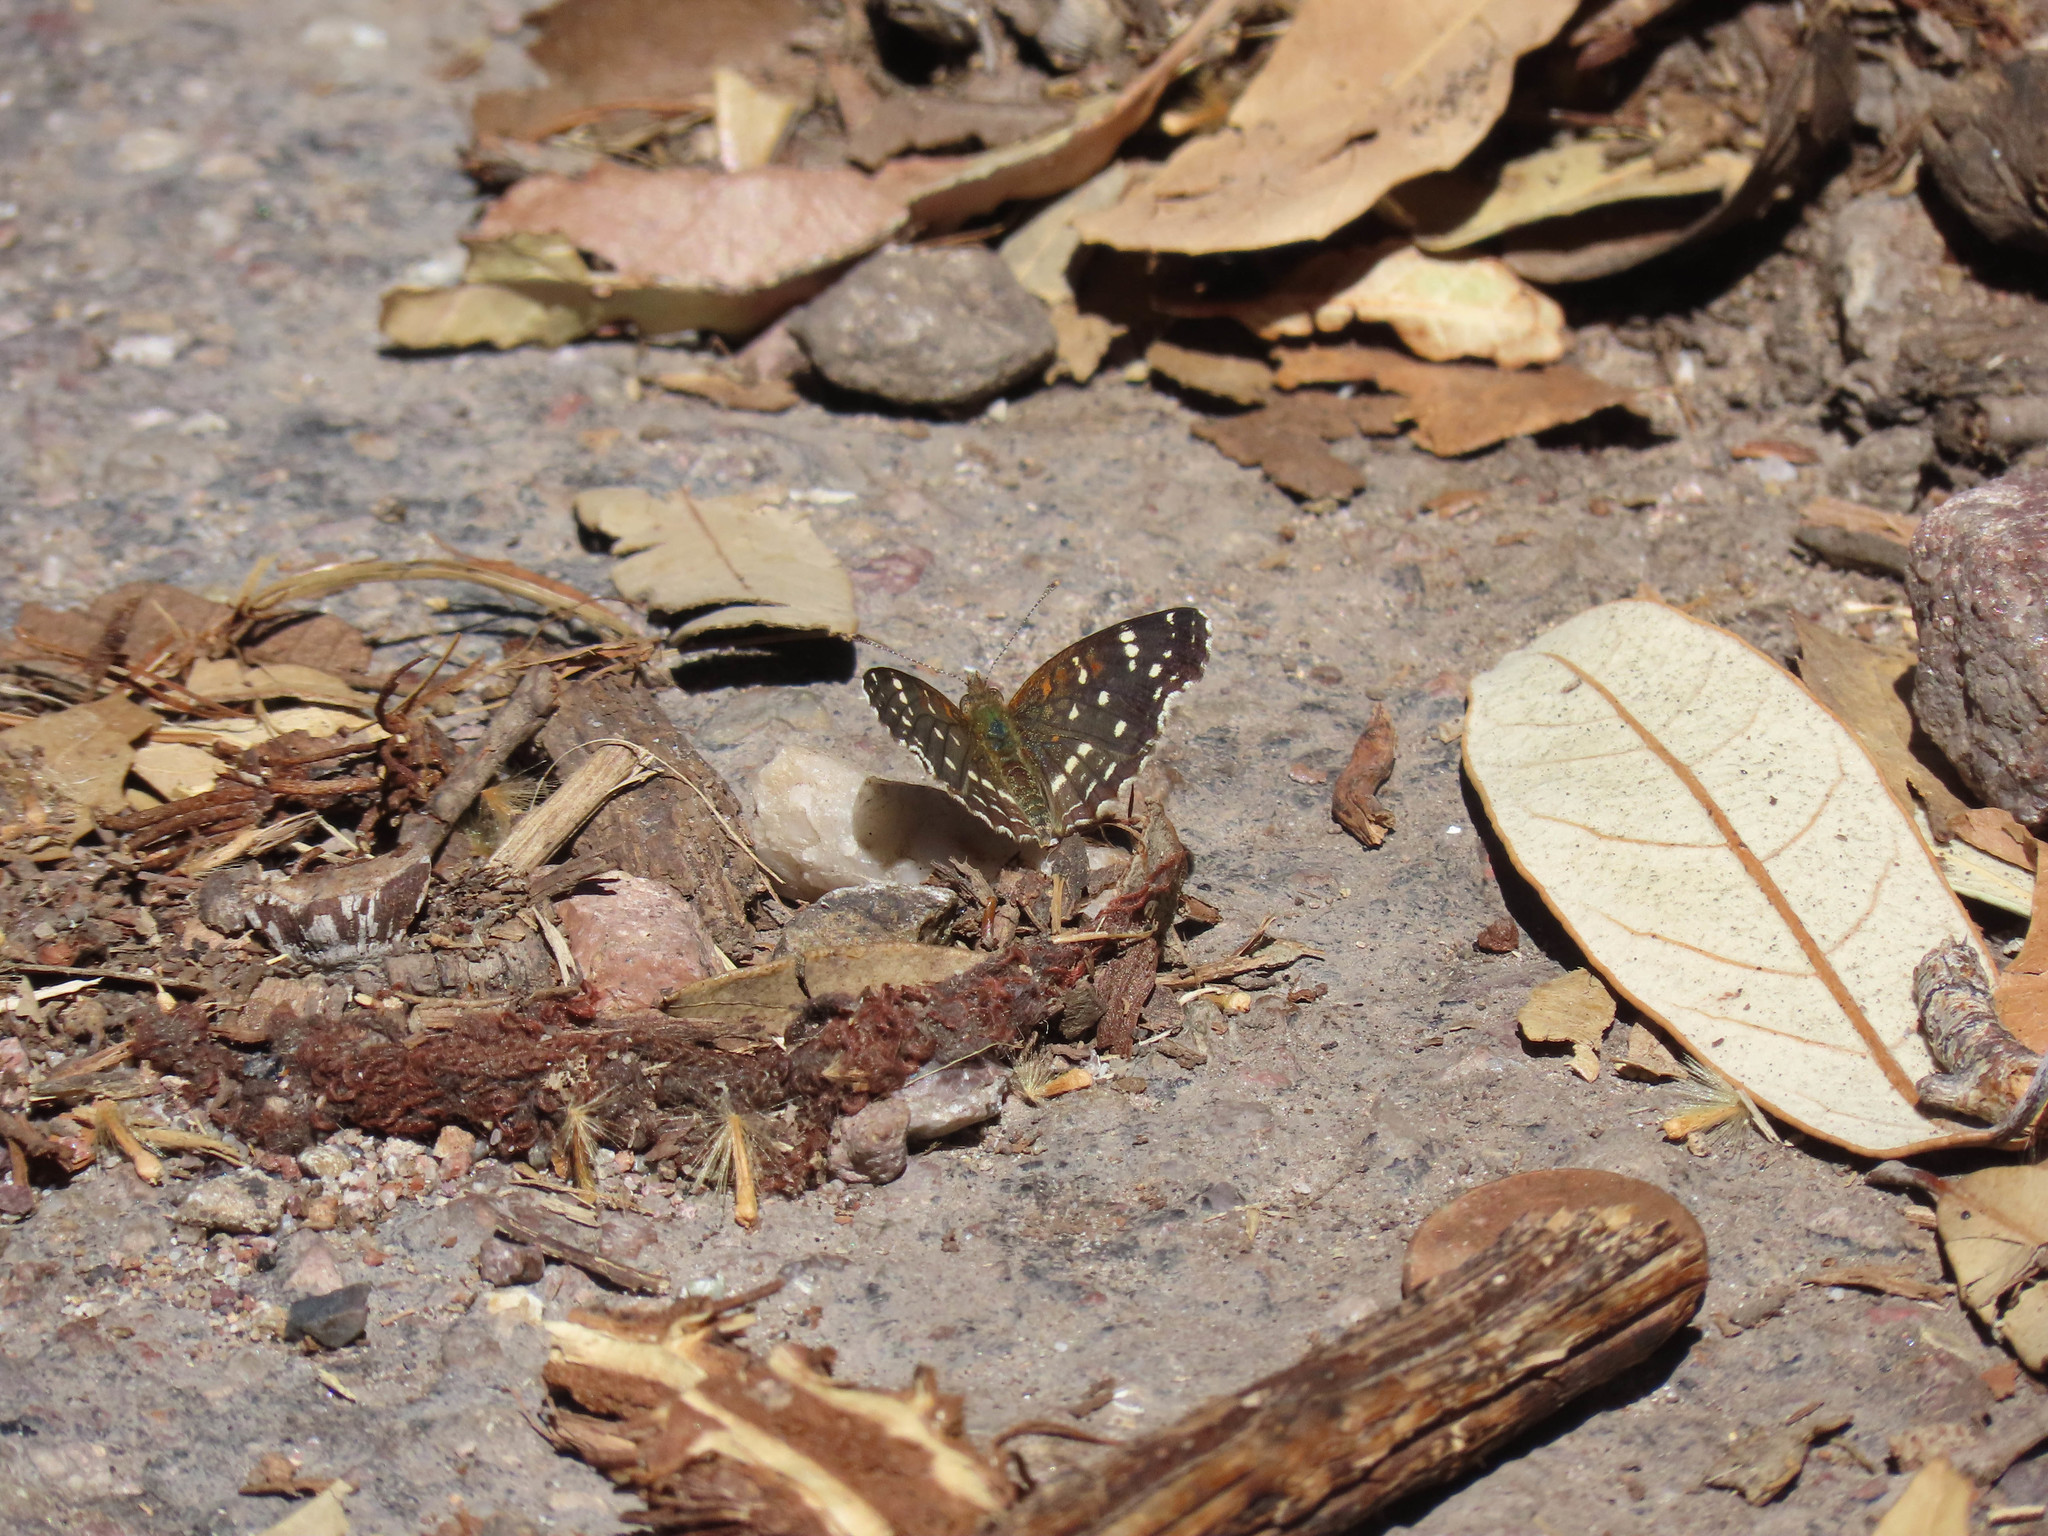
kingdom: Animalia
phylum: Arthropoda
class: Insecta
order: Lepidoptera
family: Nymphalidae
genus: Anthanassa
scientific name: Anthanassa texana
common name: Texan crescent
